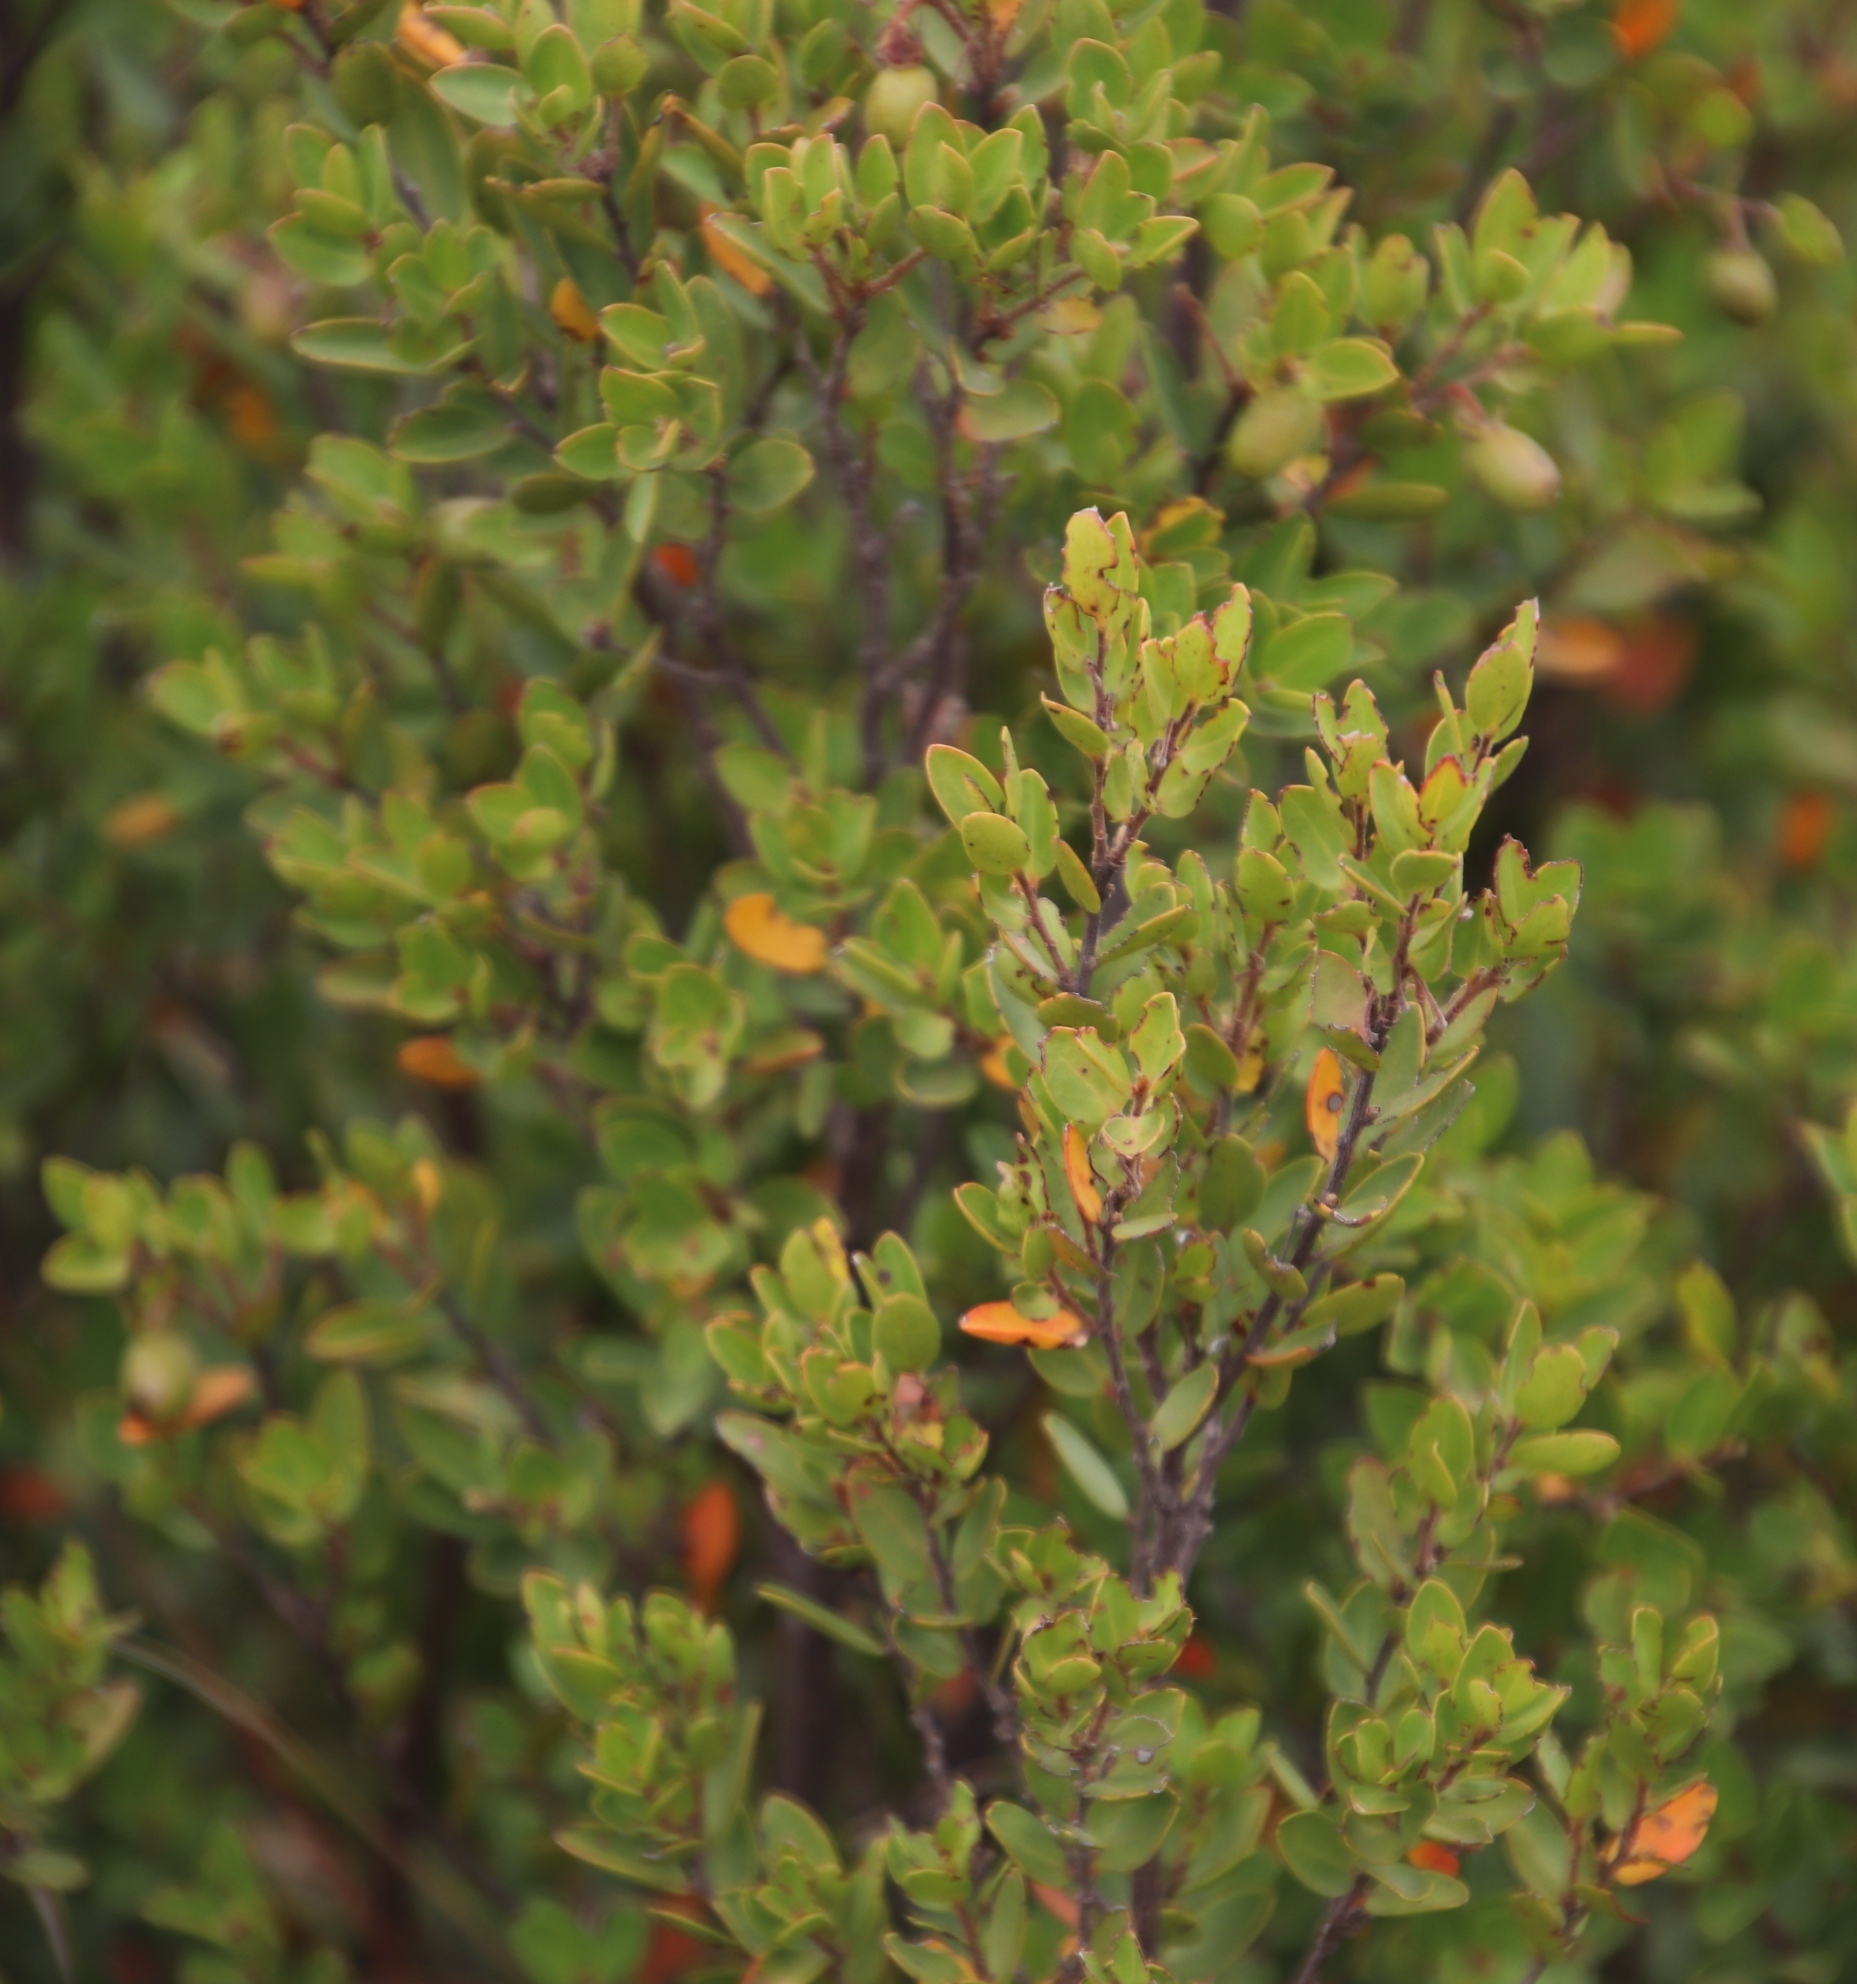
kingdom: Plantae
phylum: Tracheophyta
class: Magnoliopsida
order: Ericales
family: Ebenaceae
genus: Diospyros
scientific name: Diospyros glabra
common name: Fynbos star apple
